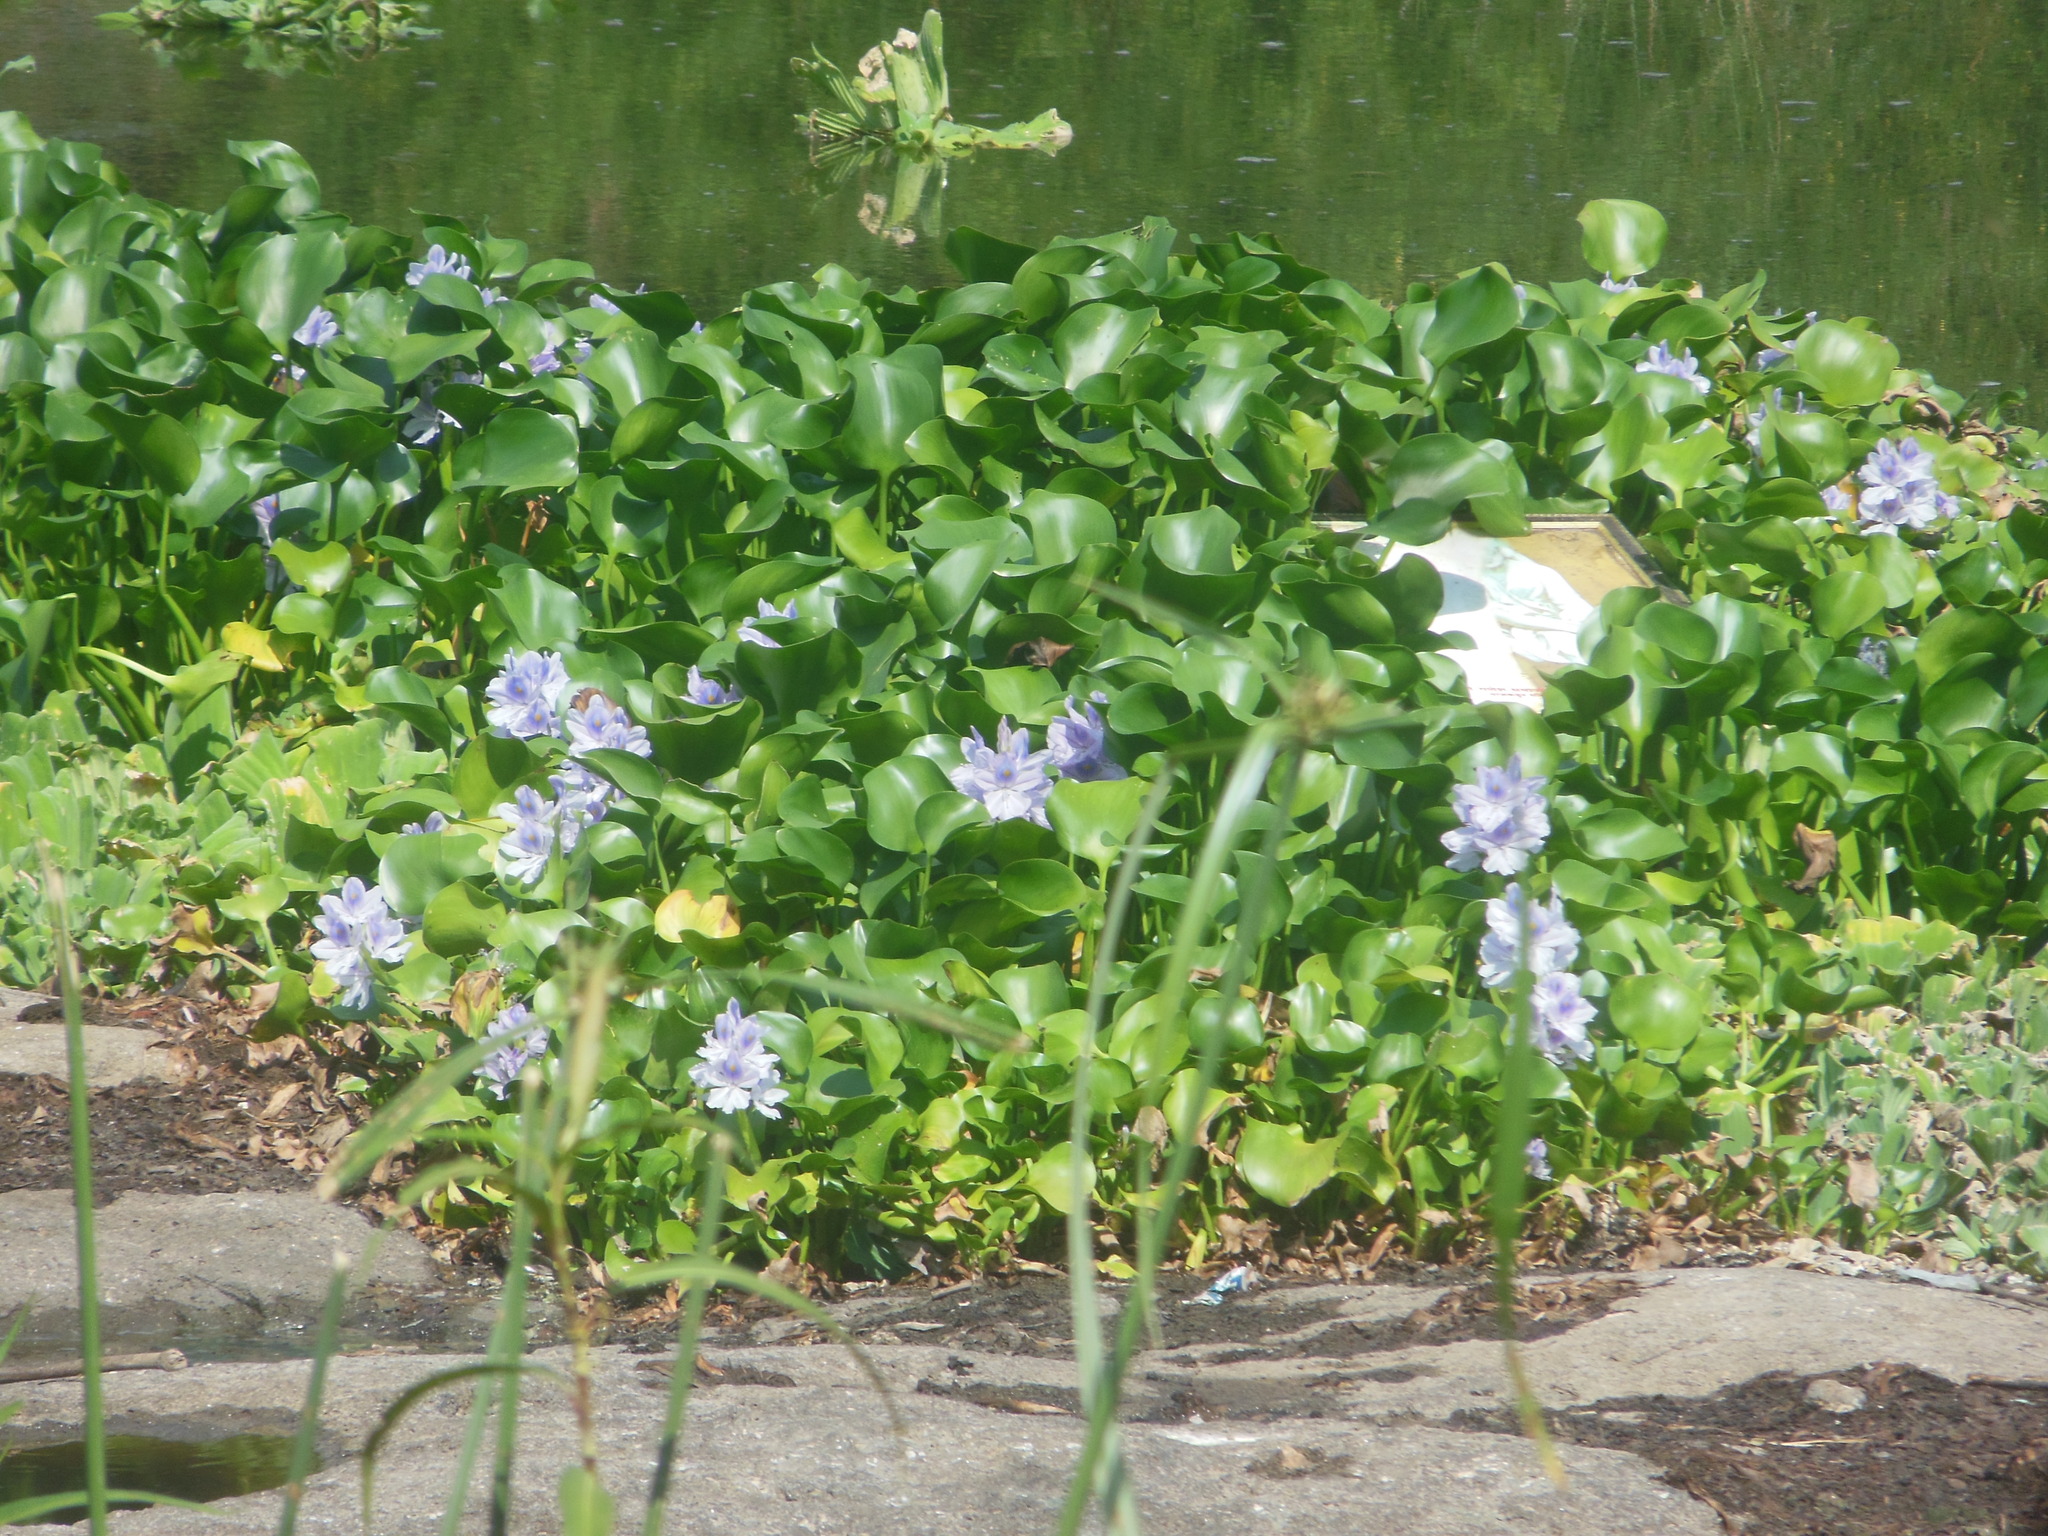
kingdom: Plantae
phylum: Tracheophyta
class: Liliopsida
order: Commelinales
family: Pontederiaceae
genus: Pontederia
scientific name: Pontederia crassipes
